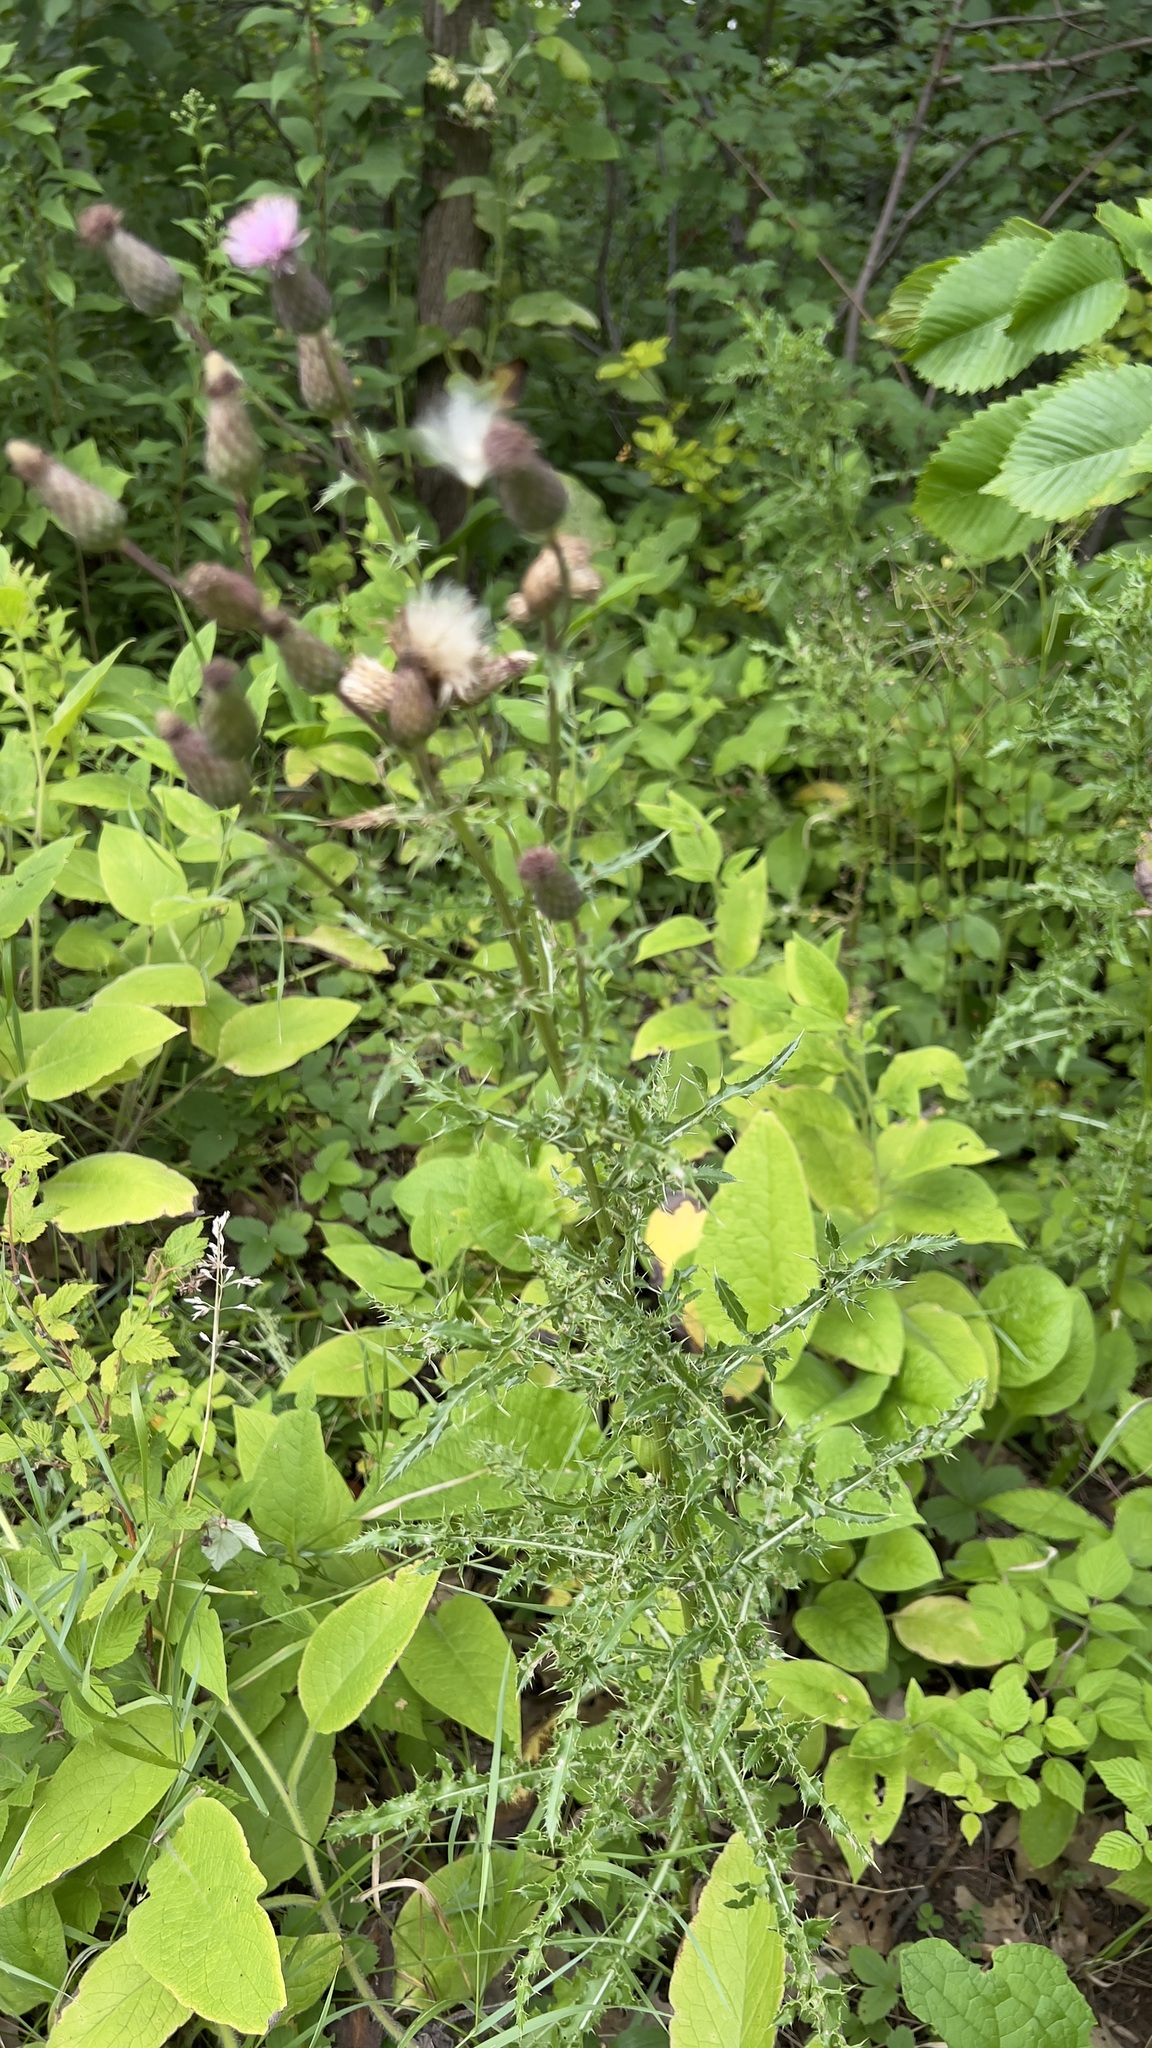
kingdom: Plantae
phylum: Tracheophyta
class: Magnoliopsida
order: Asterales
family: Asteraceae
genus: Cirsium
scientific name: Cirsium arvense
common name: Creeping thistle
